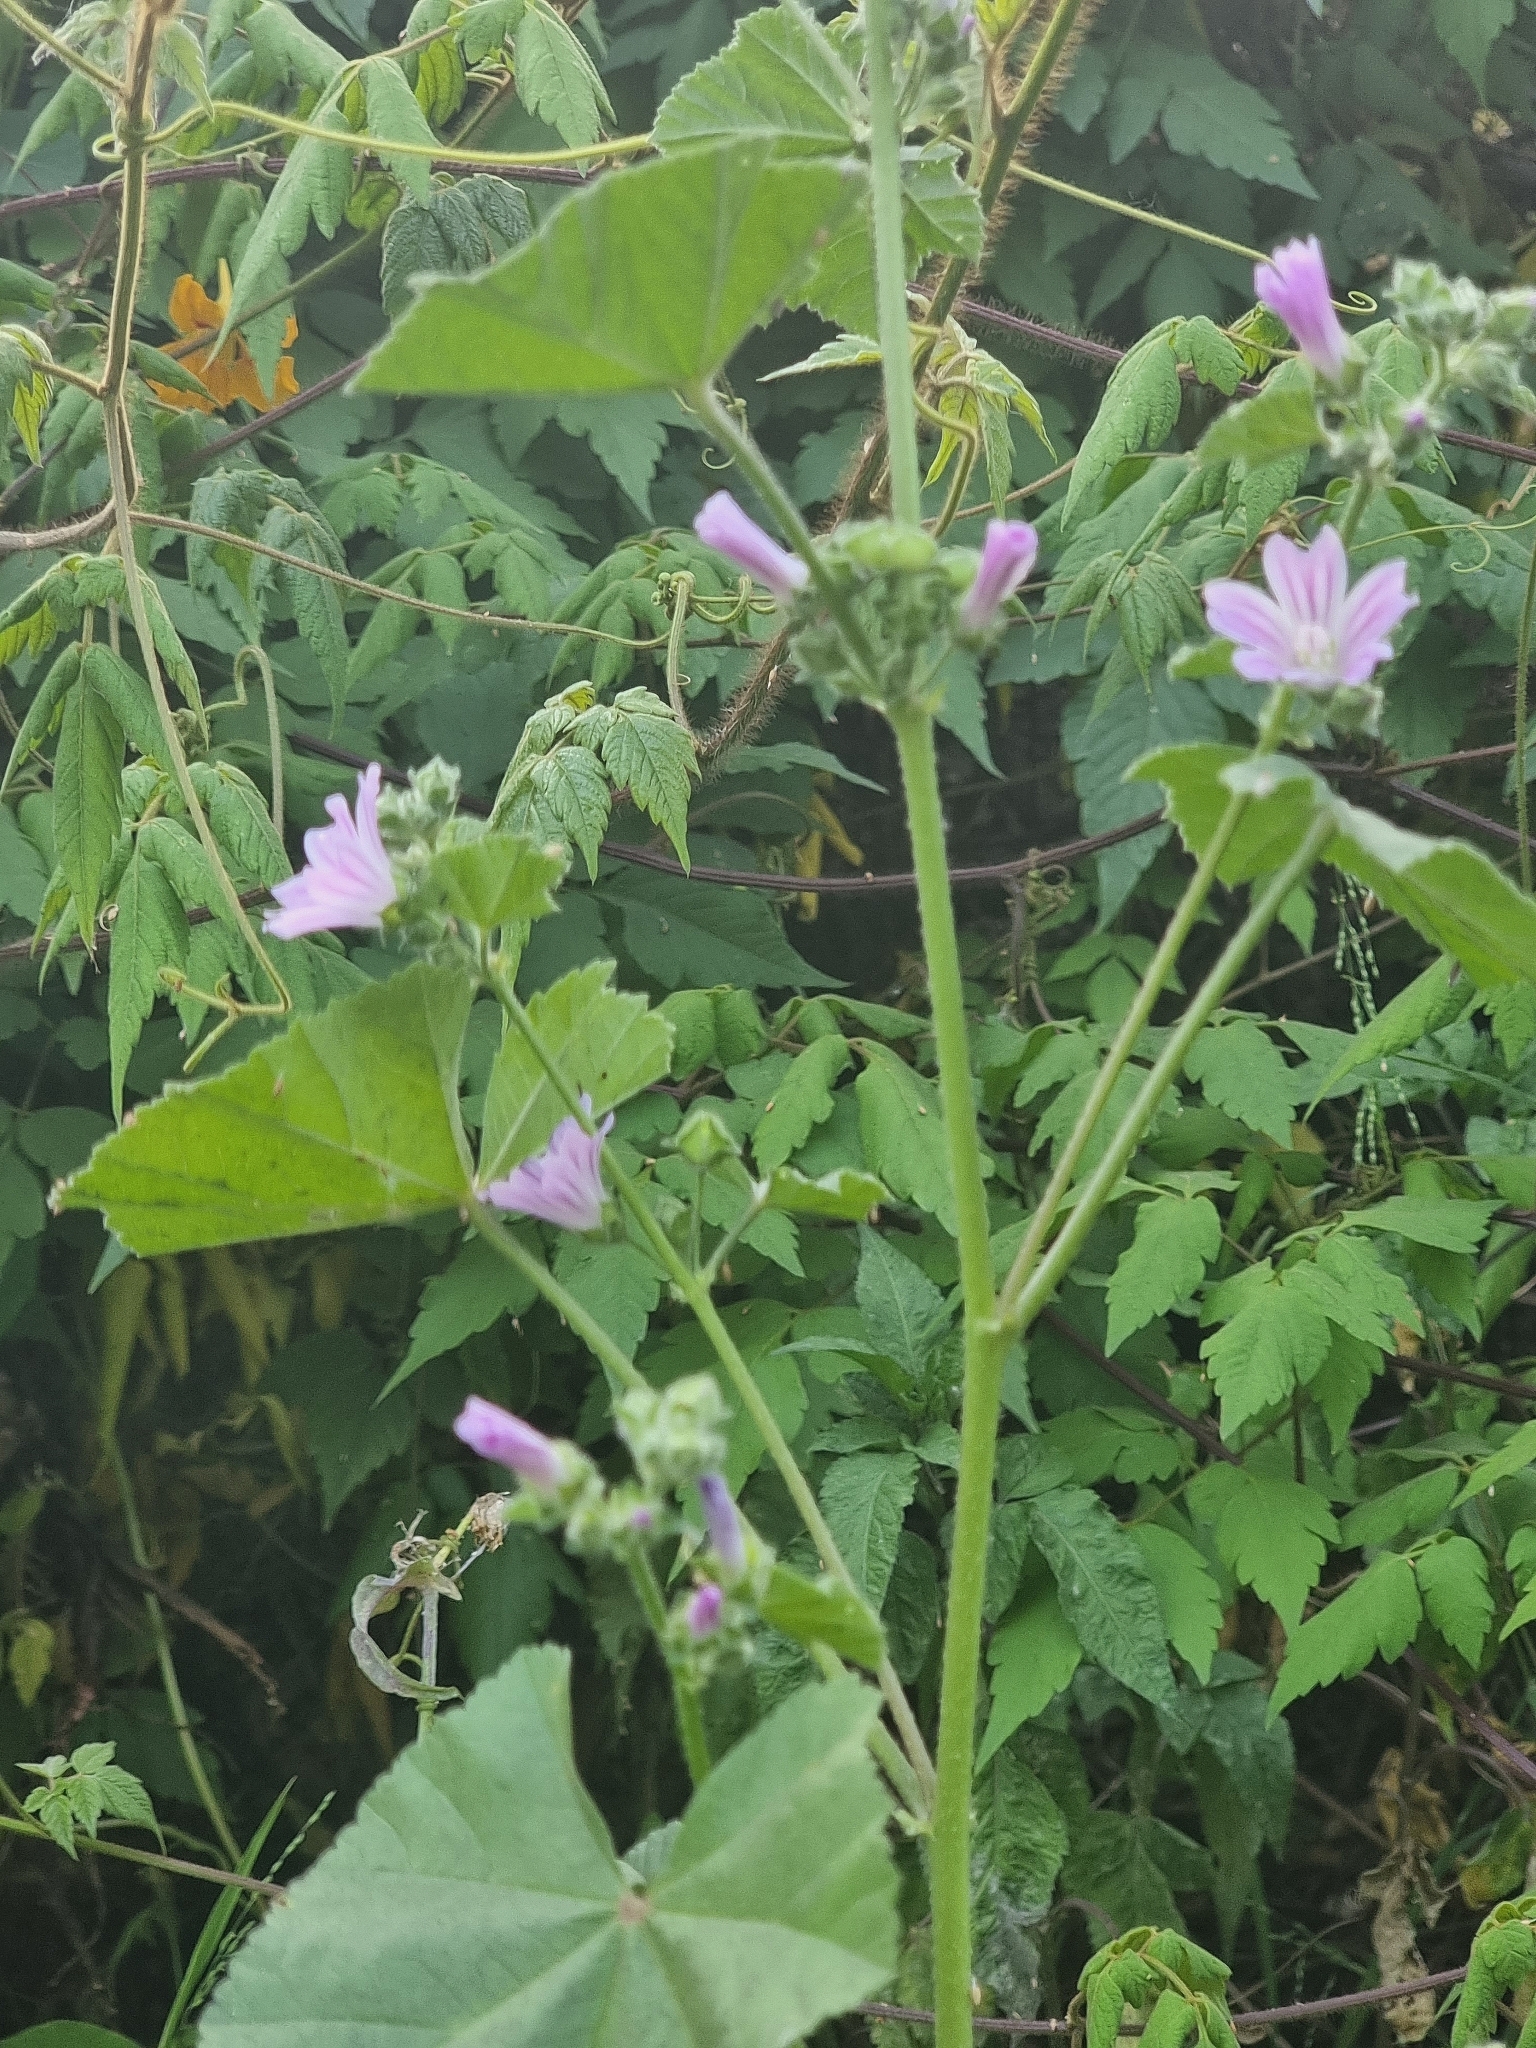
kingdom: Plantae
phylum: Tracheophyta
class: Magnoliopsida
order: Malvales
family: Malvaceae
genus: Malva
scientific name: Malva multiflora
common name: Cheeseweed
